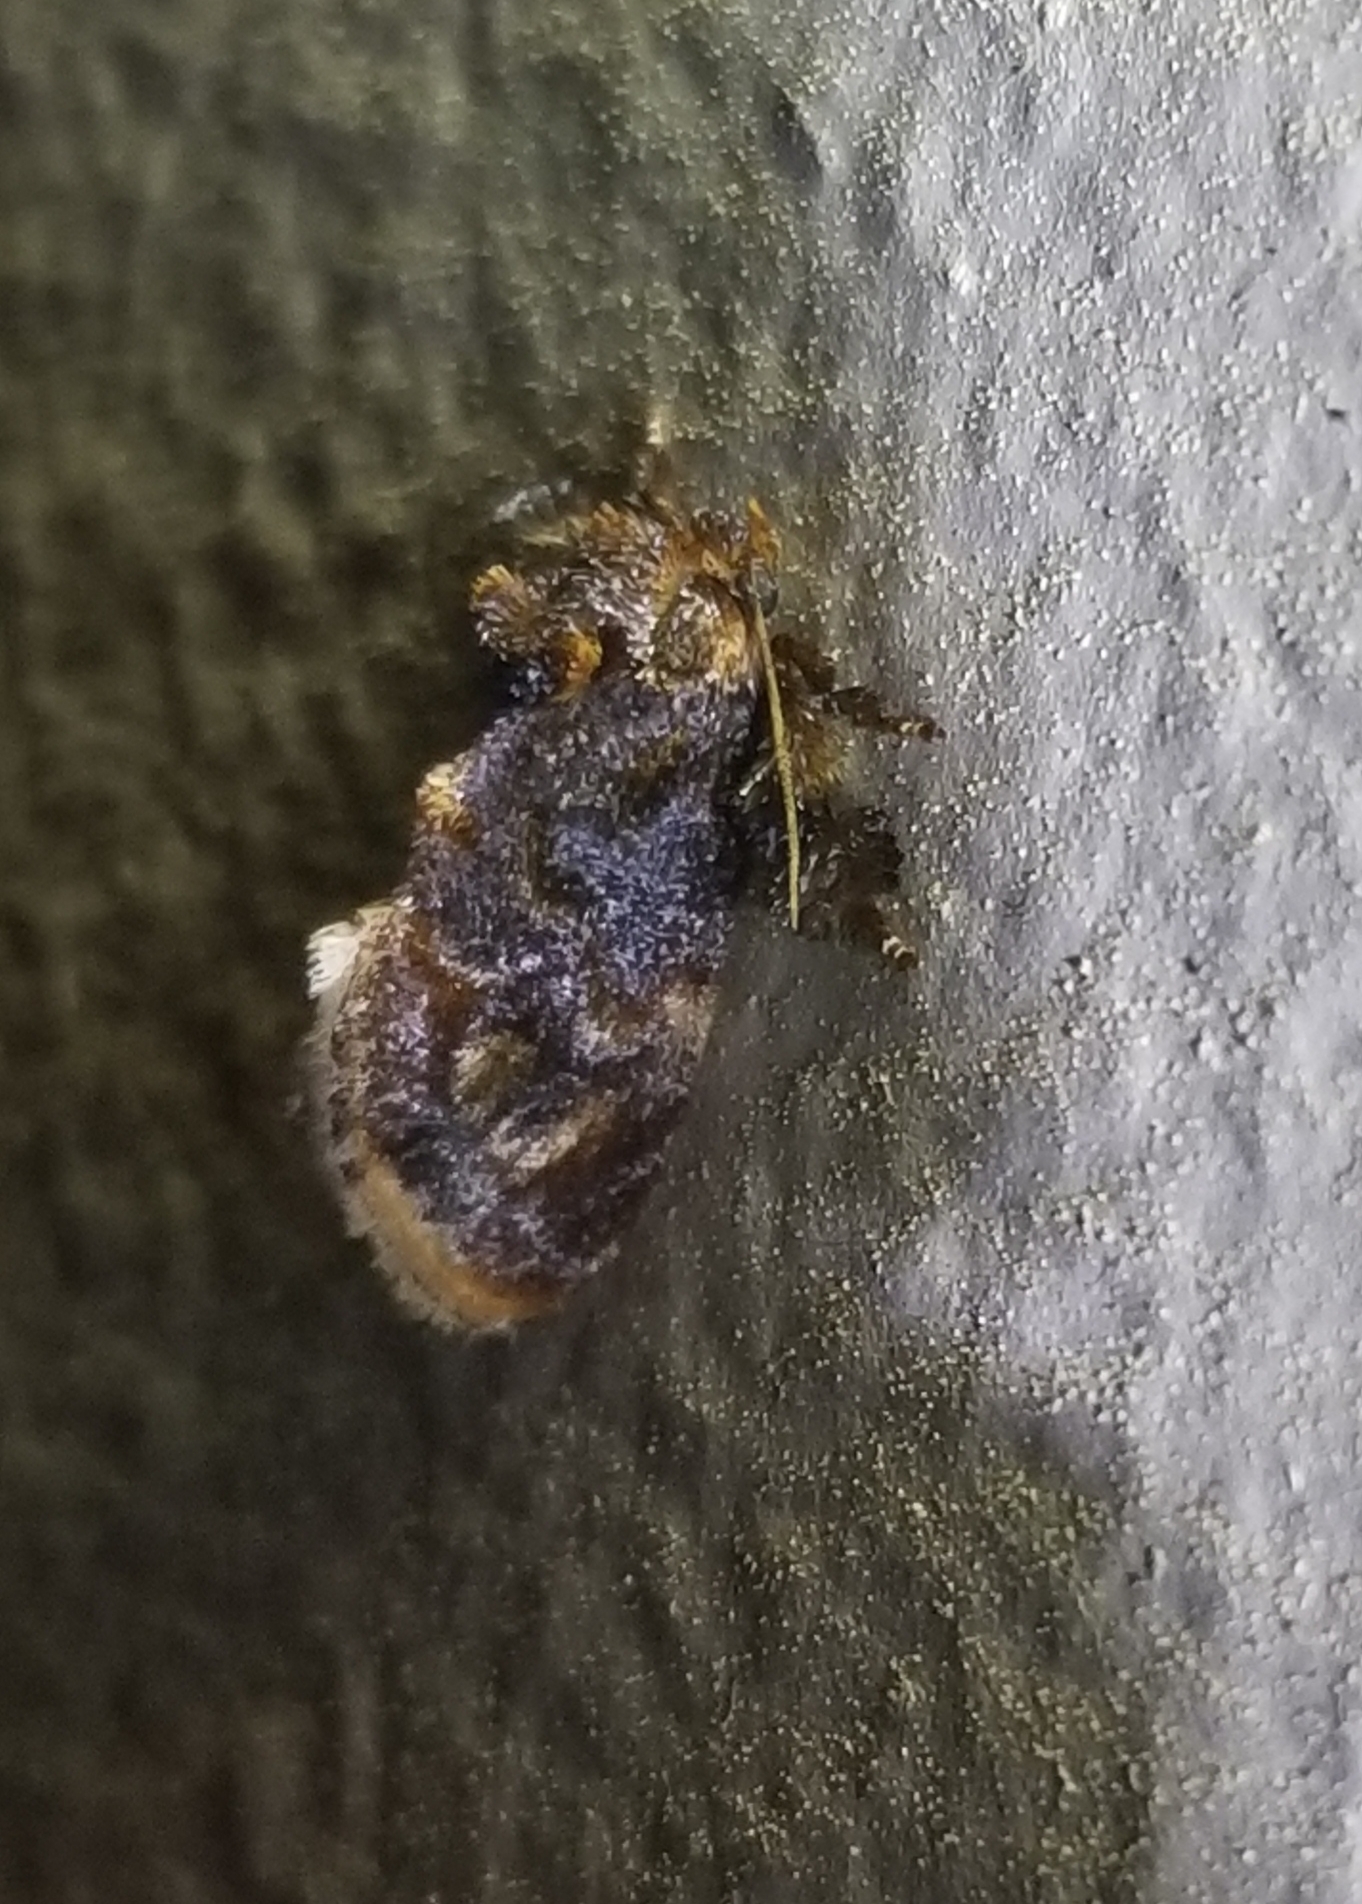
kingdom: Animalia
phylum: Arthropoda
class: Insecta
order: Lepidoptera
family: Limacodidae
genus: Isochaetes
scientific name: Isochaetes beutenmuelleri
